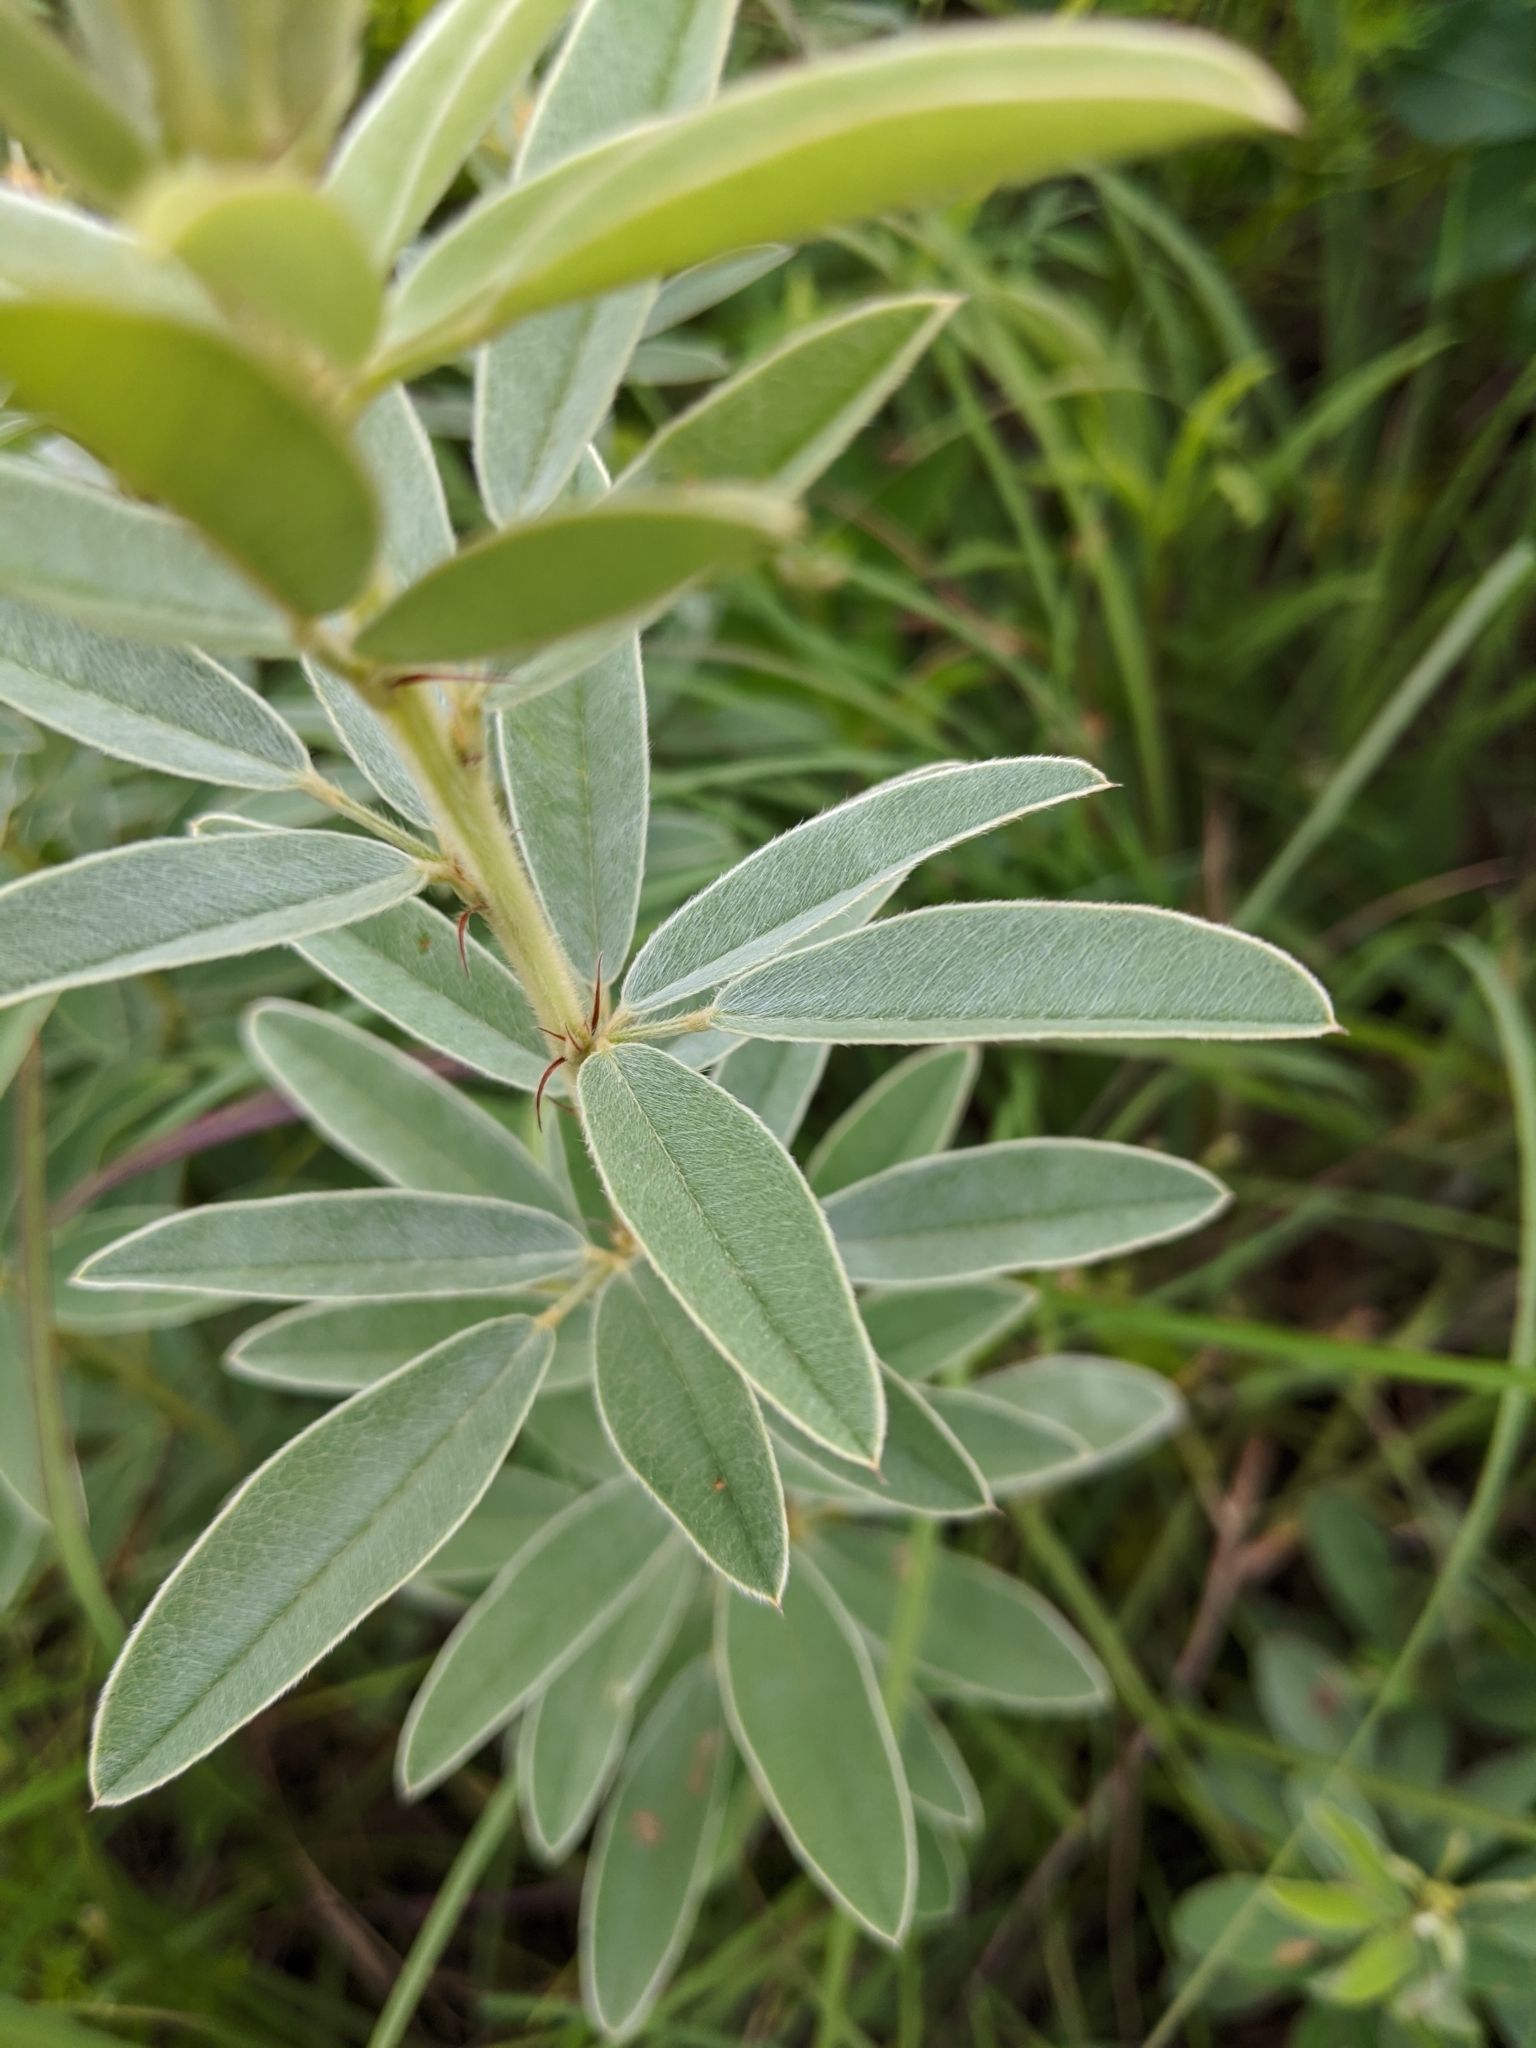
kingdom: Plantae
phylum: Tracheophyta
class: Magnoliopsida
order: Fabales
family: Fabaceae
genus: Lespedeza
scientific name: Lespedeza capitata
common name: Dusty clover
